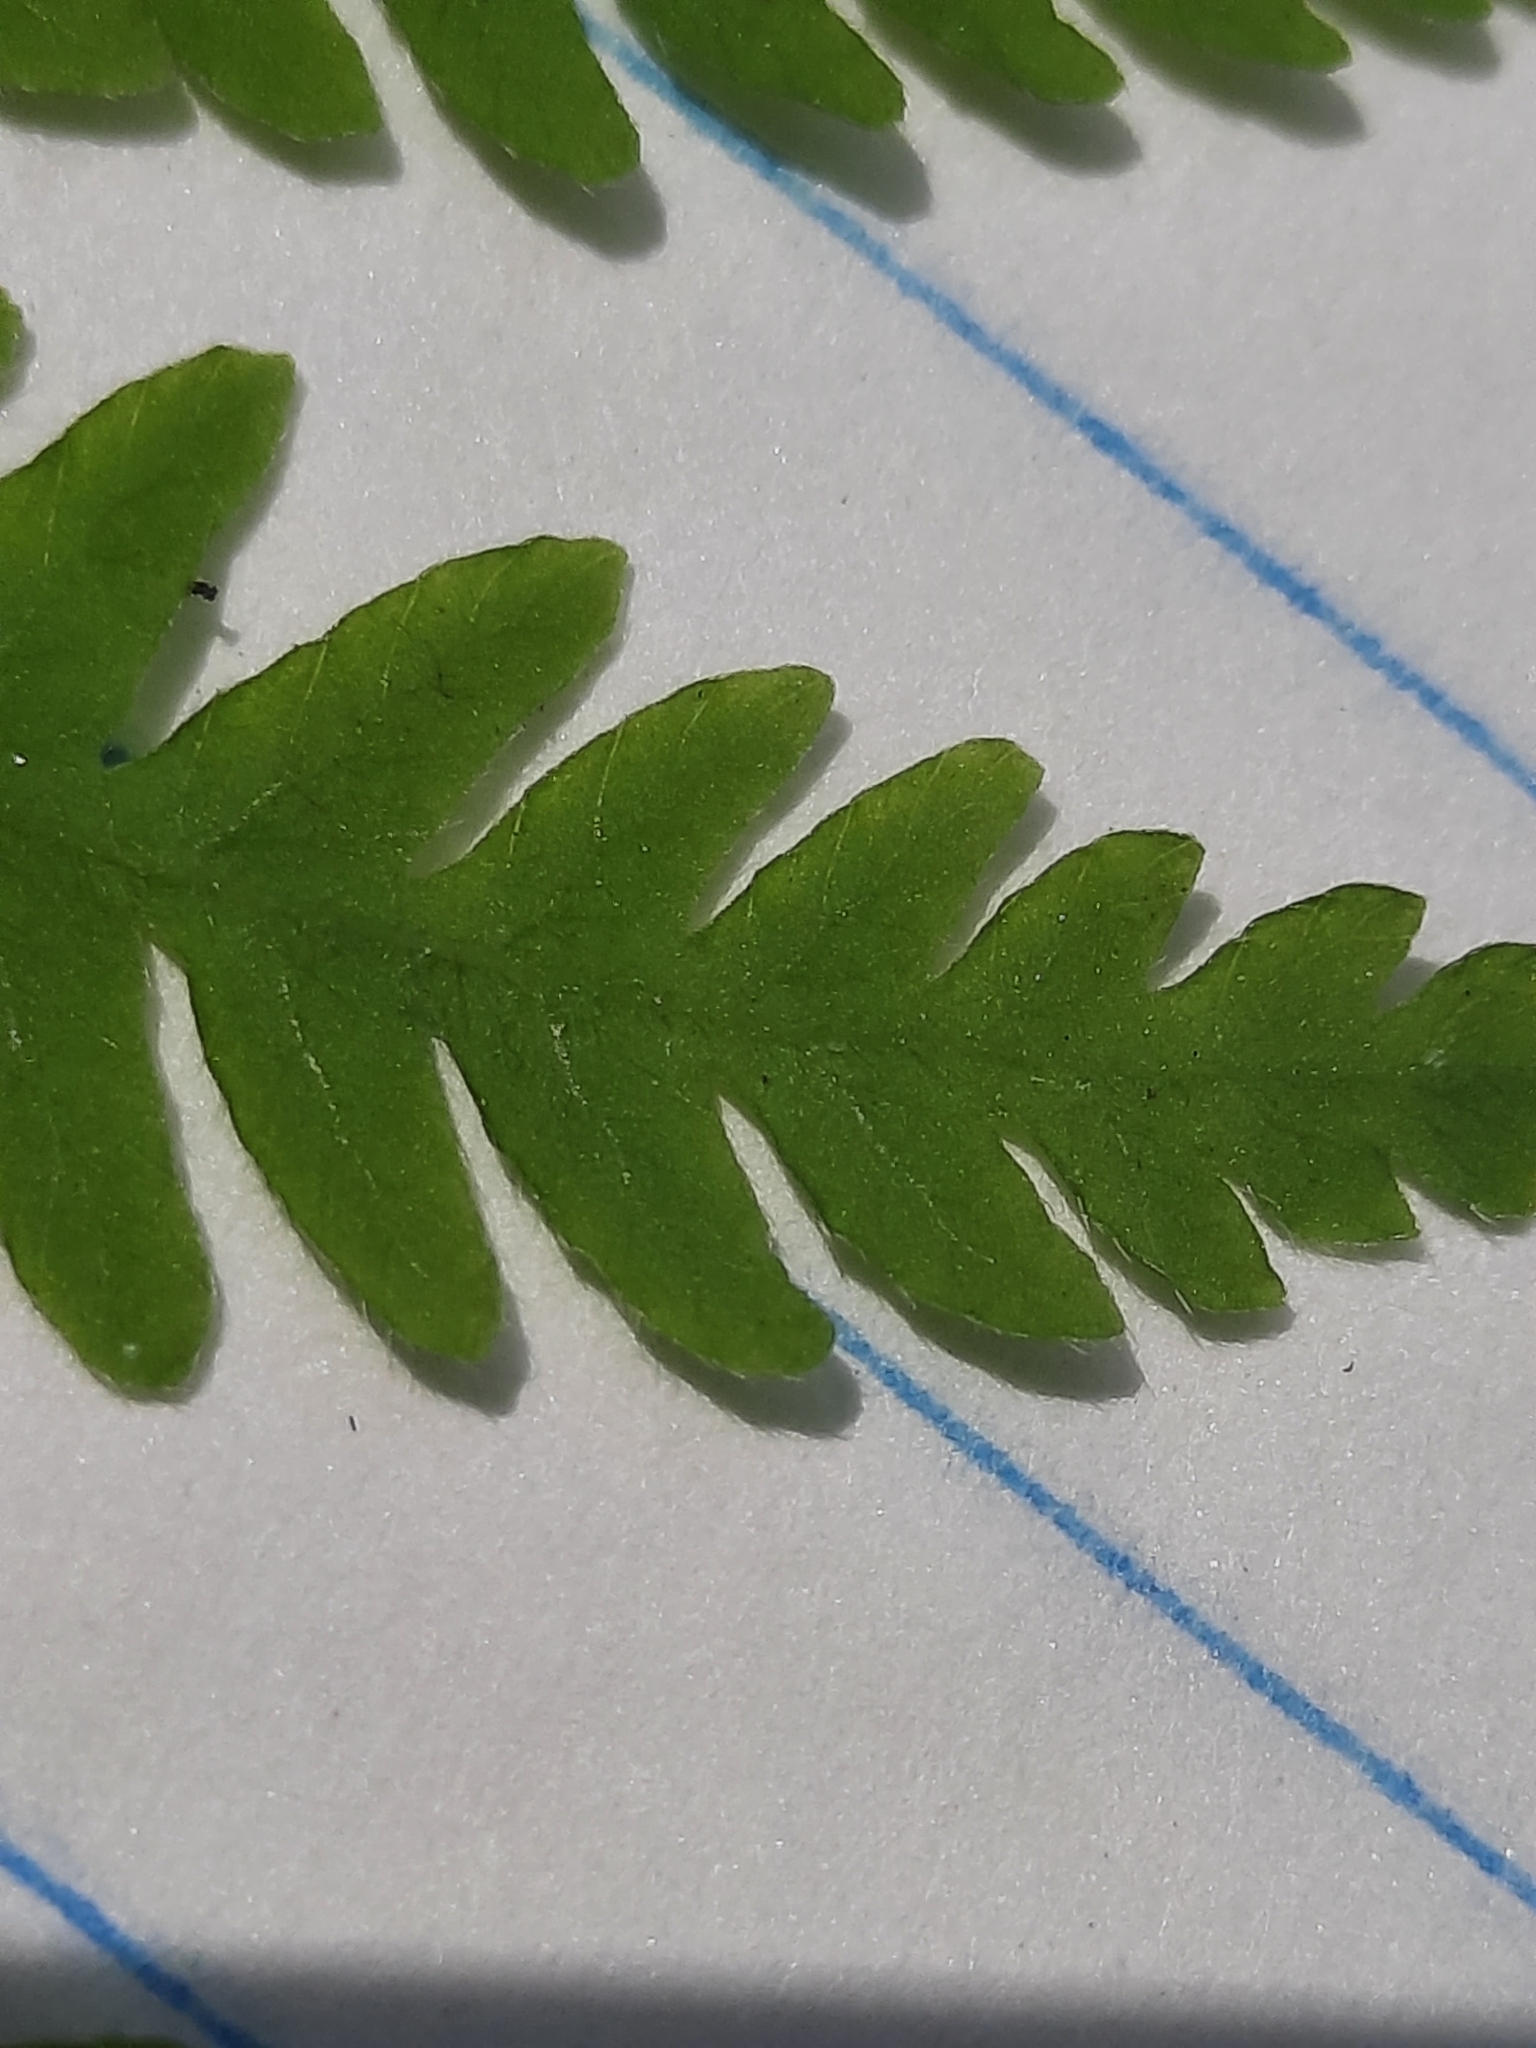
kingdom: Plantae
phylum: Tracheophyta
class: Polypodiopsida
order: Polypodiales
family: Thelypteridaceae
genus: Amauropelta
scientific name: Amauropelta noveboracensis
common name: New york fern
